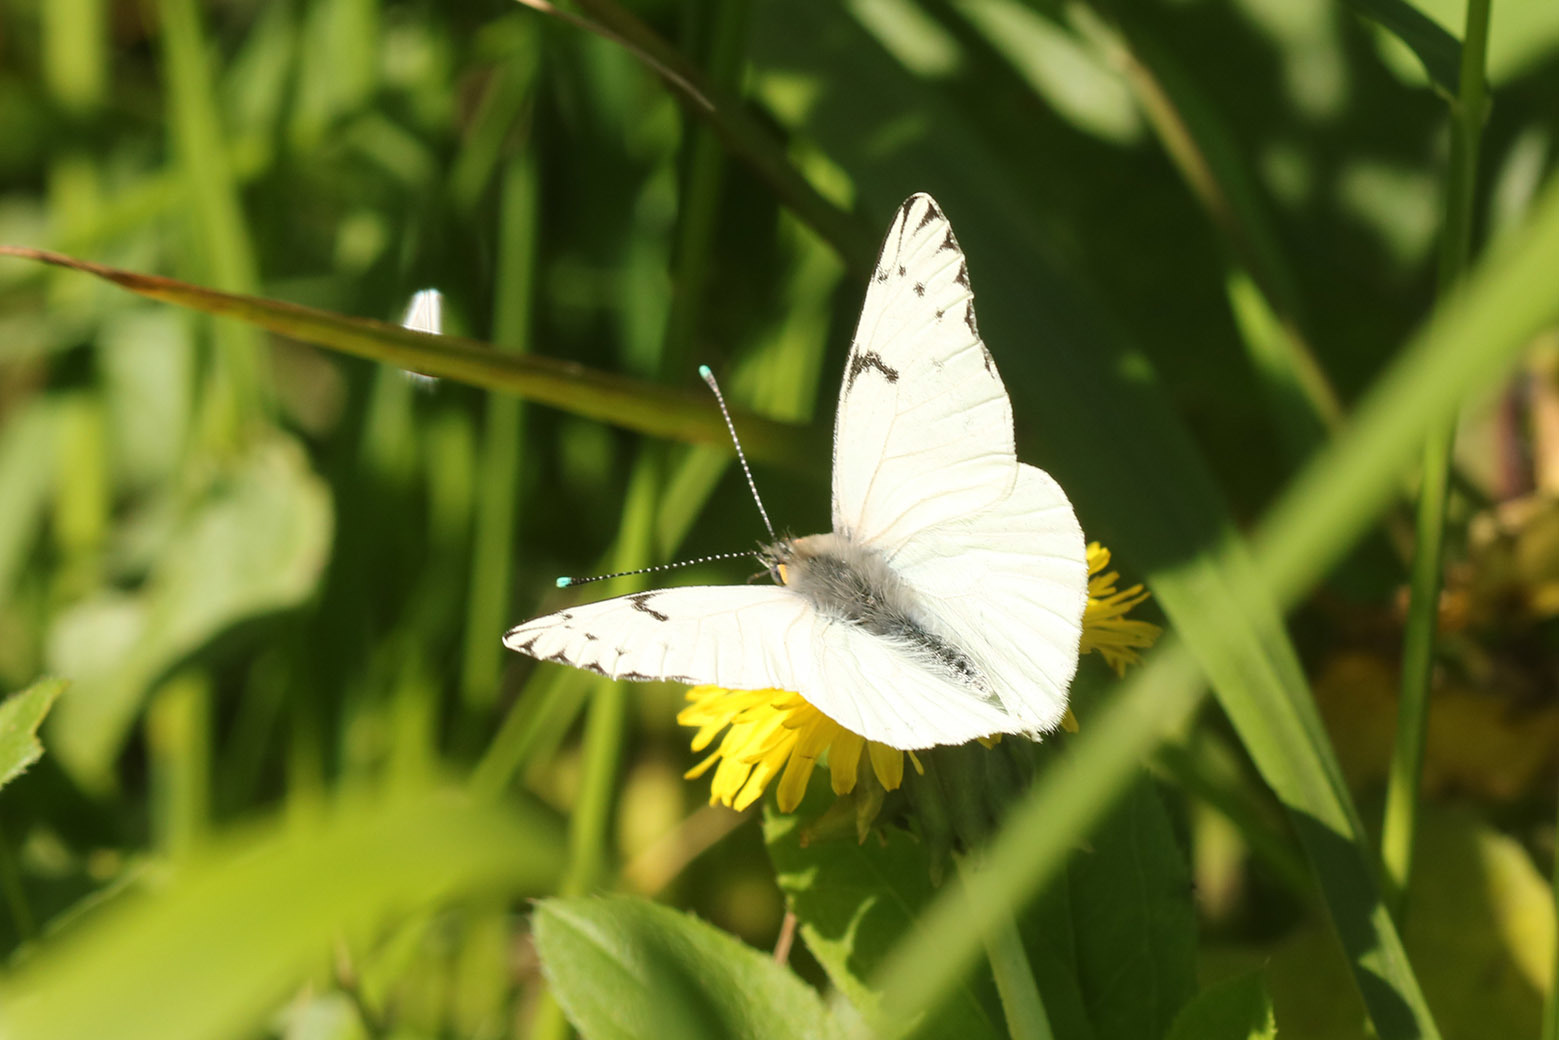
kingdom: Animalia
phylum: Arthropoda
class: Insecta
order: Lepidoptera
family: Pieridae
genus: Tatochila
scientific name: Tatochila autodice
